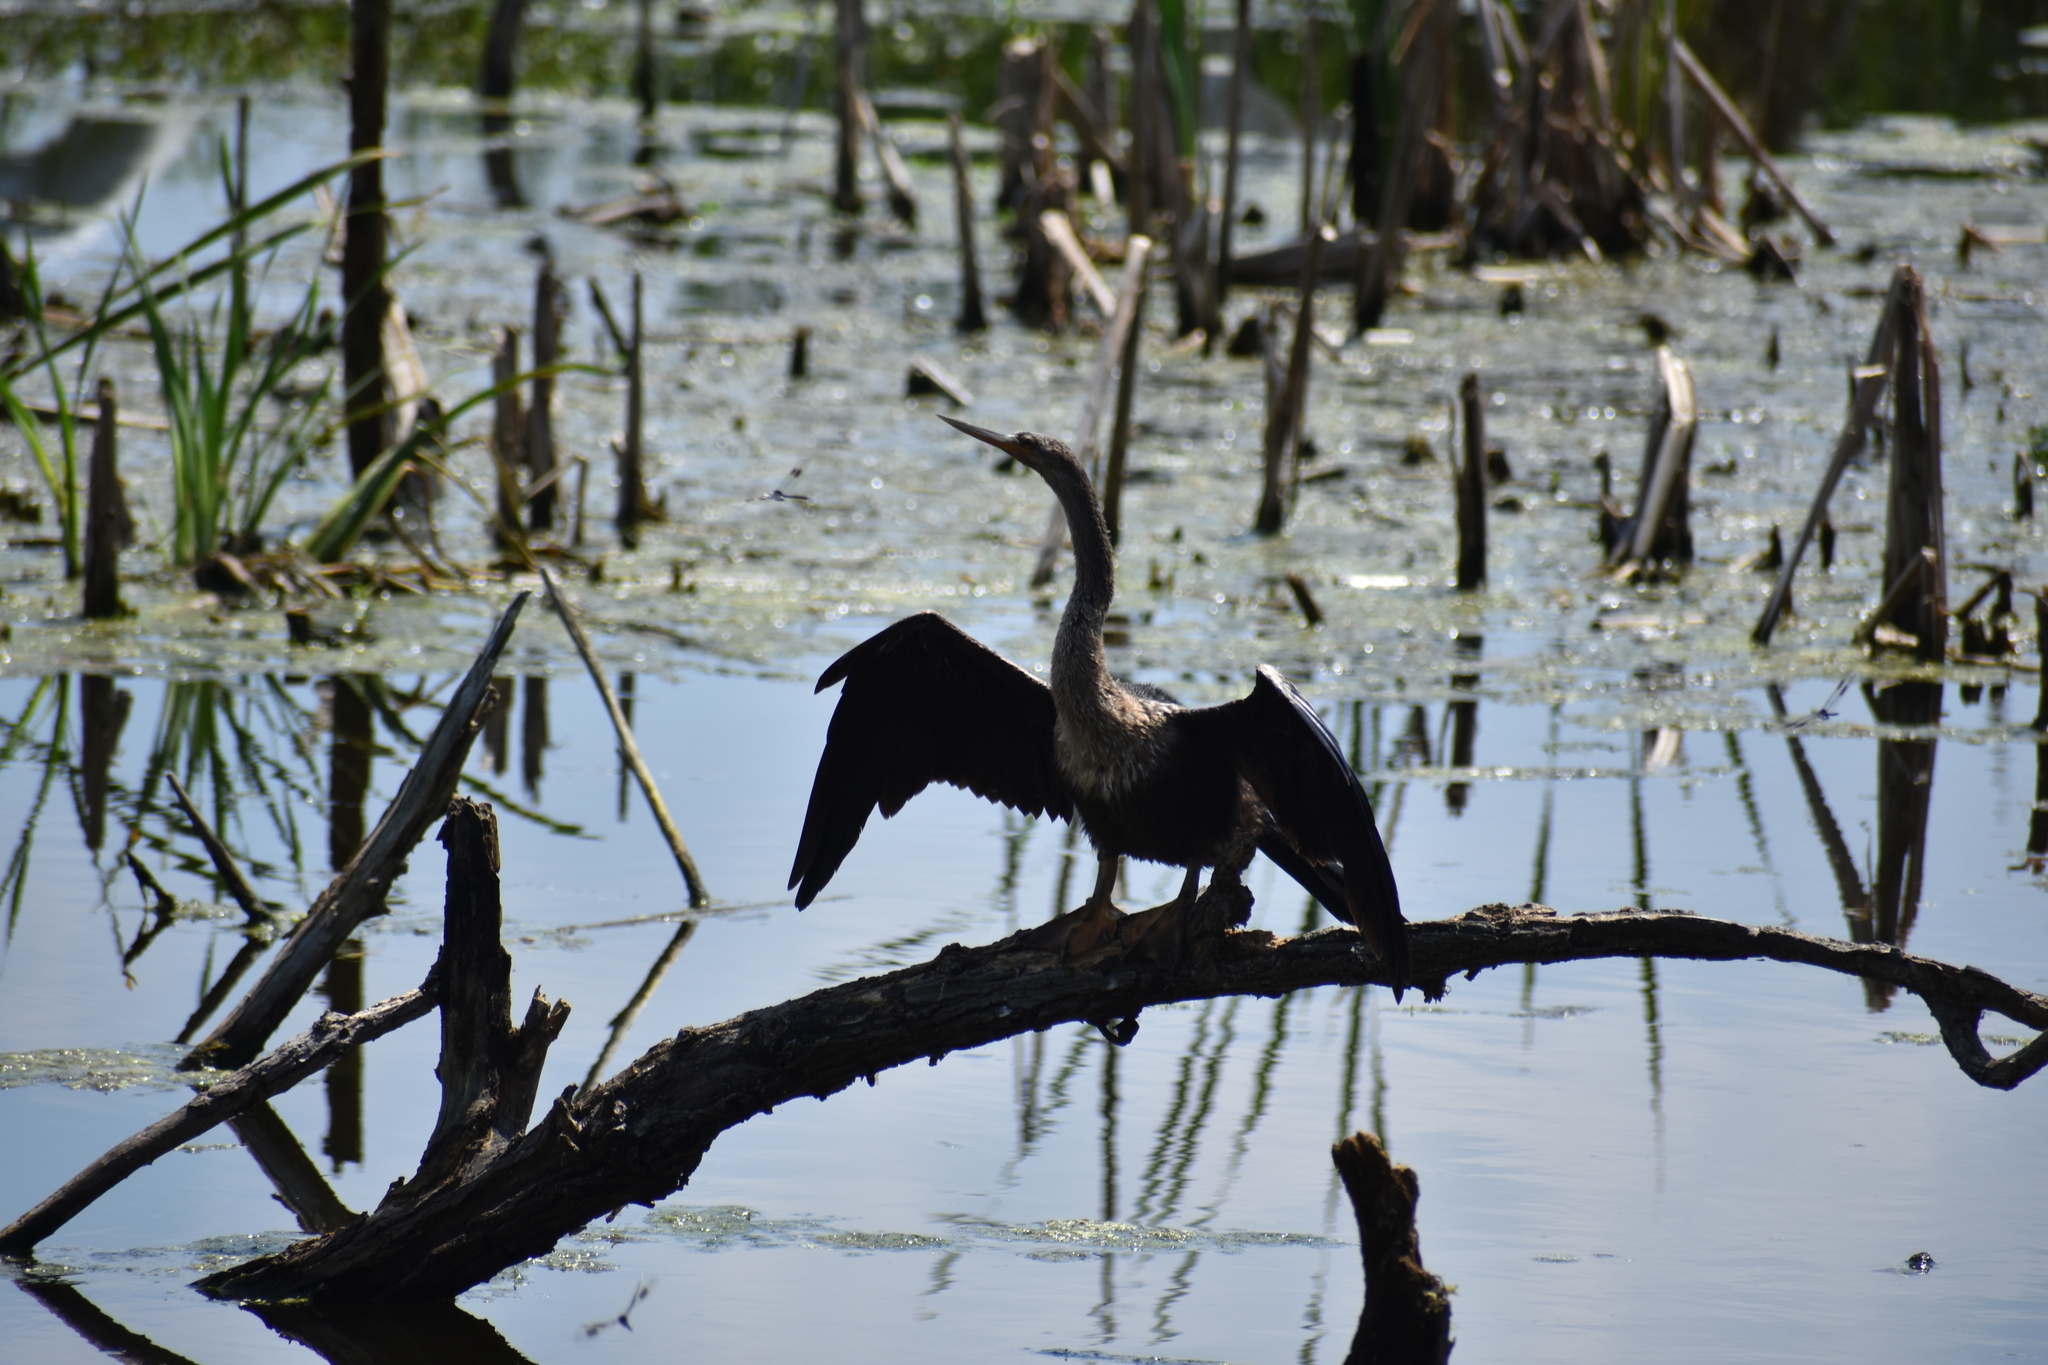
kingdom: Animalia
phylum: Chordata
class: Aves
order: Suliformes
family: Anhingidae
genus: Anhinga
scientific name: Anhinga anhinga
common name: Anhinga
